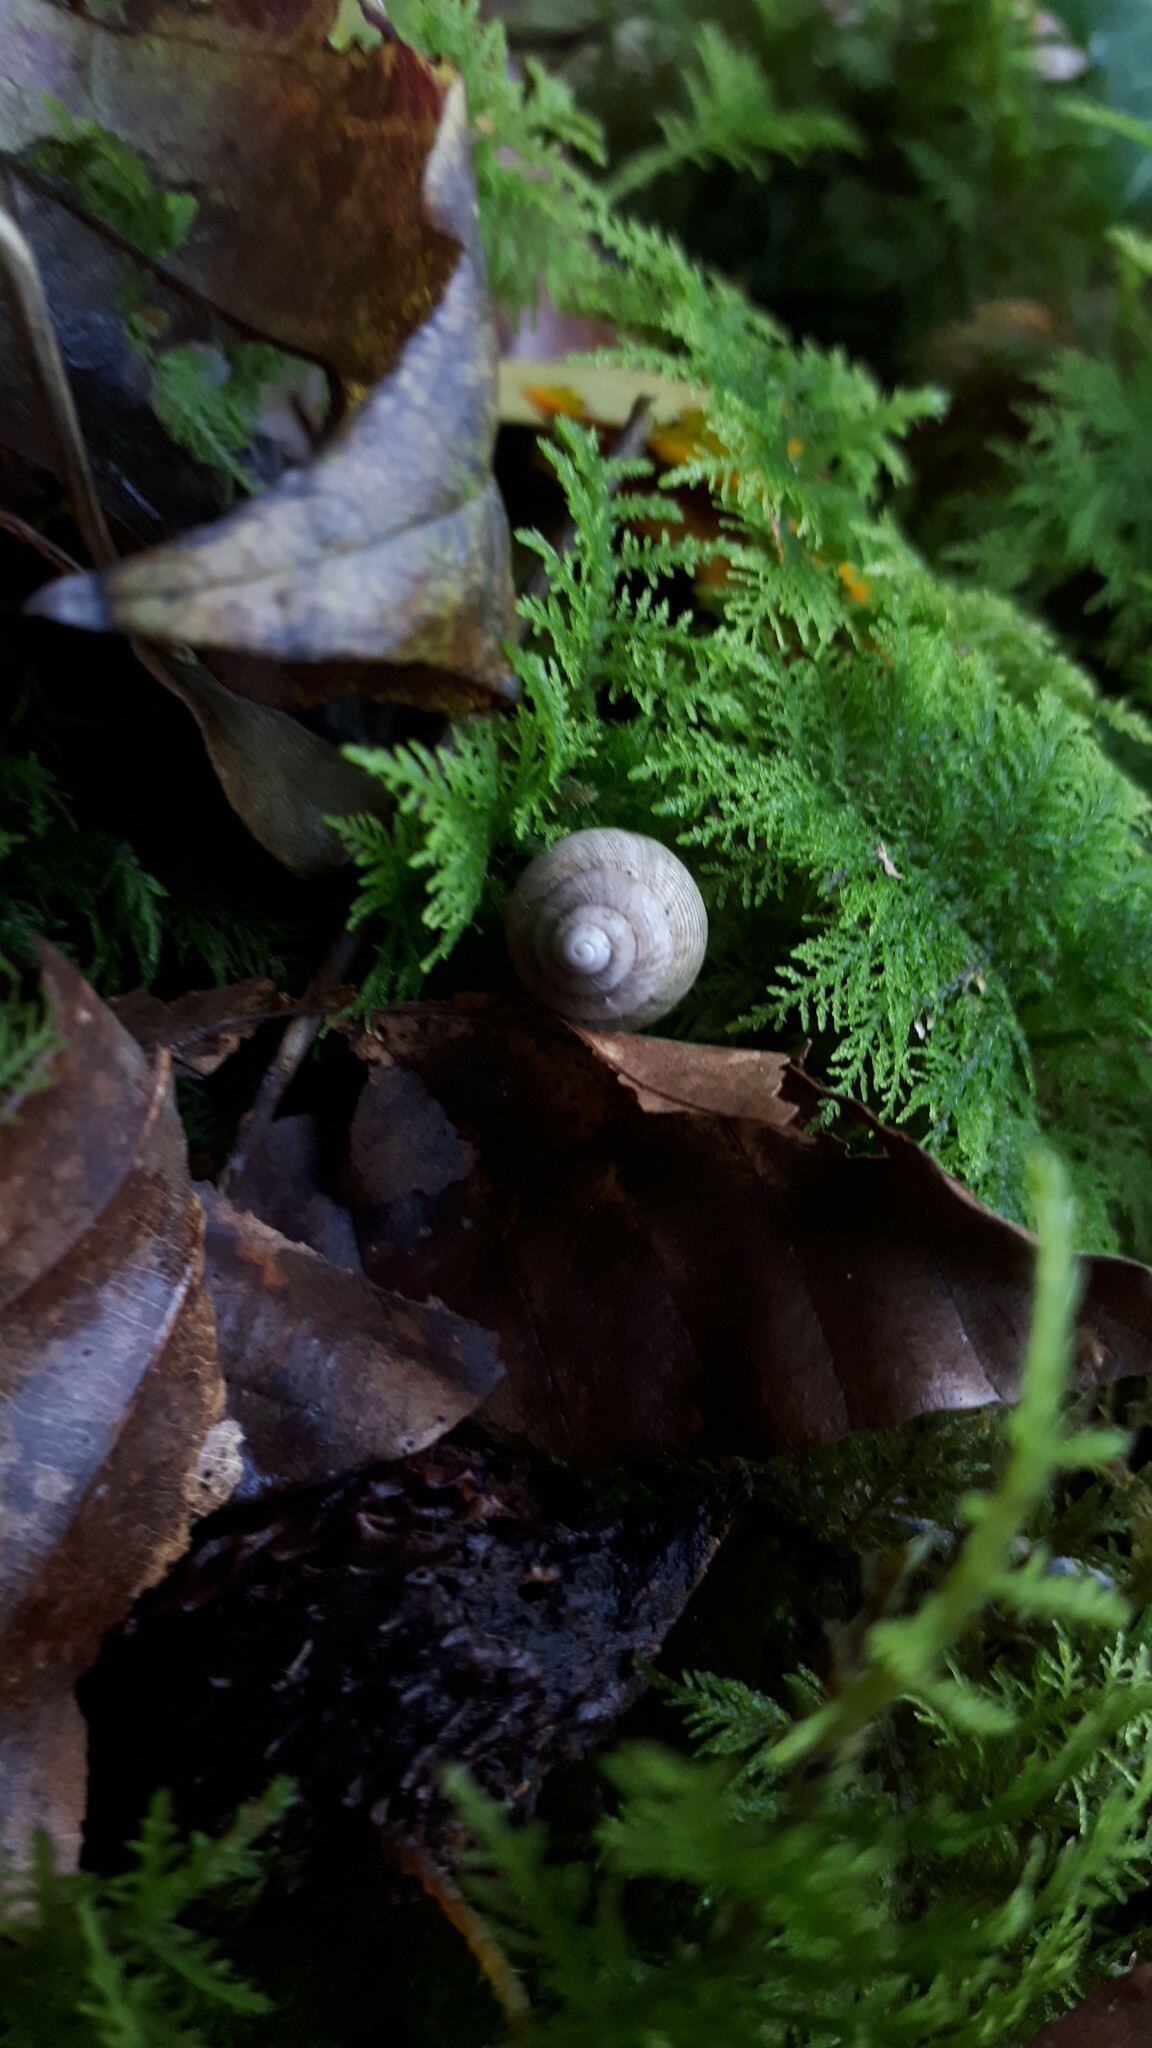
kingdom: Animalia
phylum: Mollusca
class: Gastropoda
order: Littorinimorpha
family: Pomatiidae
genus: Pomatias
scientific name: Pomatias elegans
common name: Red-mouthed snail
